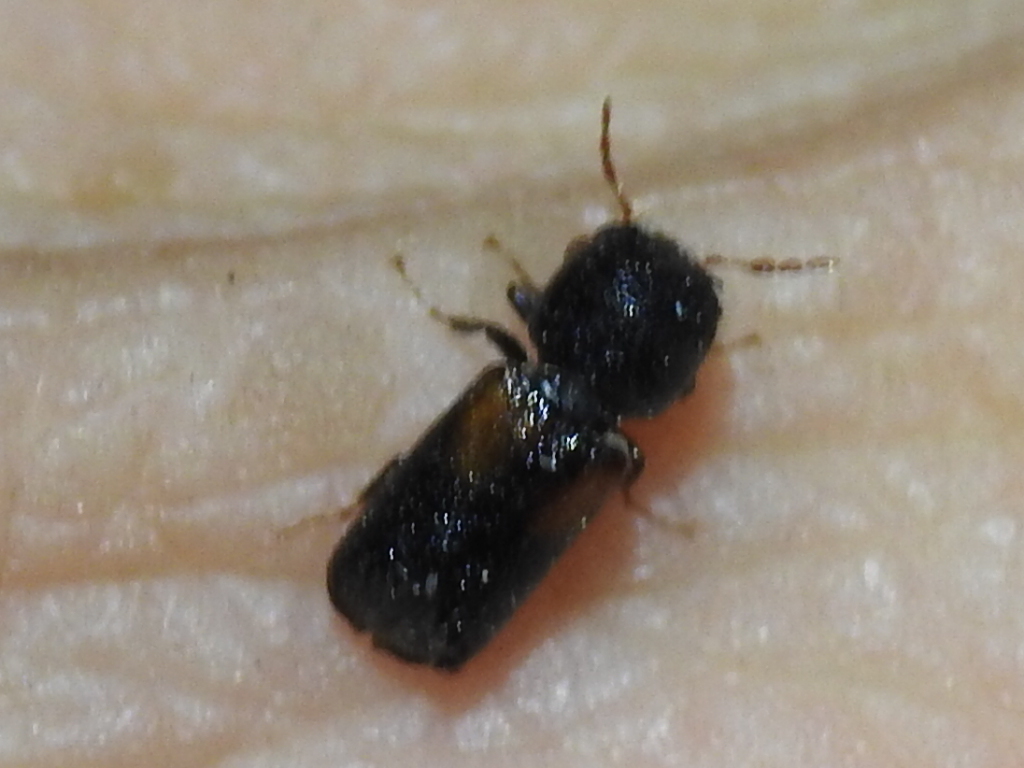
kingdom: Animalia
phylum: Arthropoda
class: Insecta
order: Coleoptera
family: Bostrichidae
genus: Xylobiops
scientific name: Xylobiops basilaris
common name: Red-shouldered bostrichid
